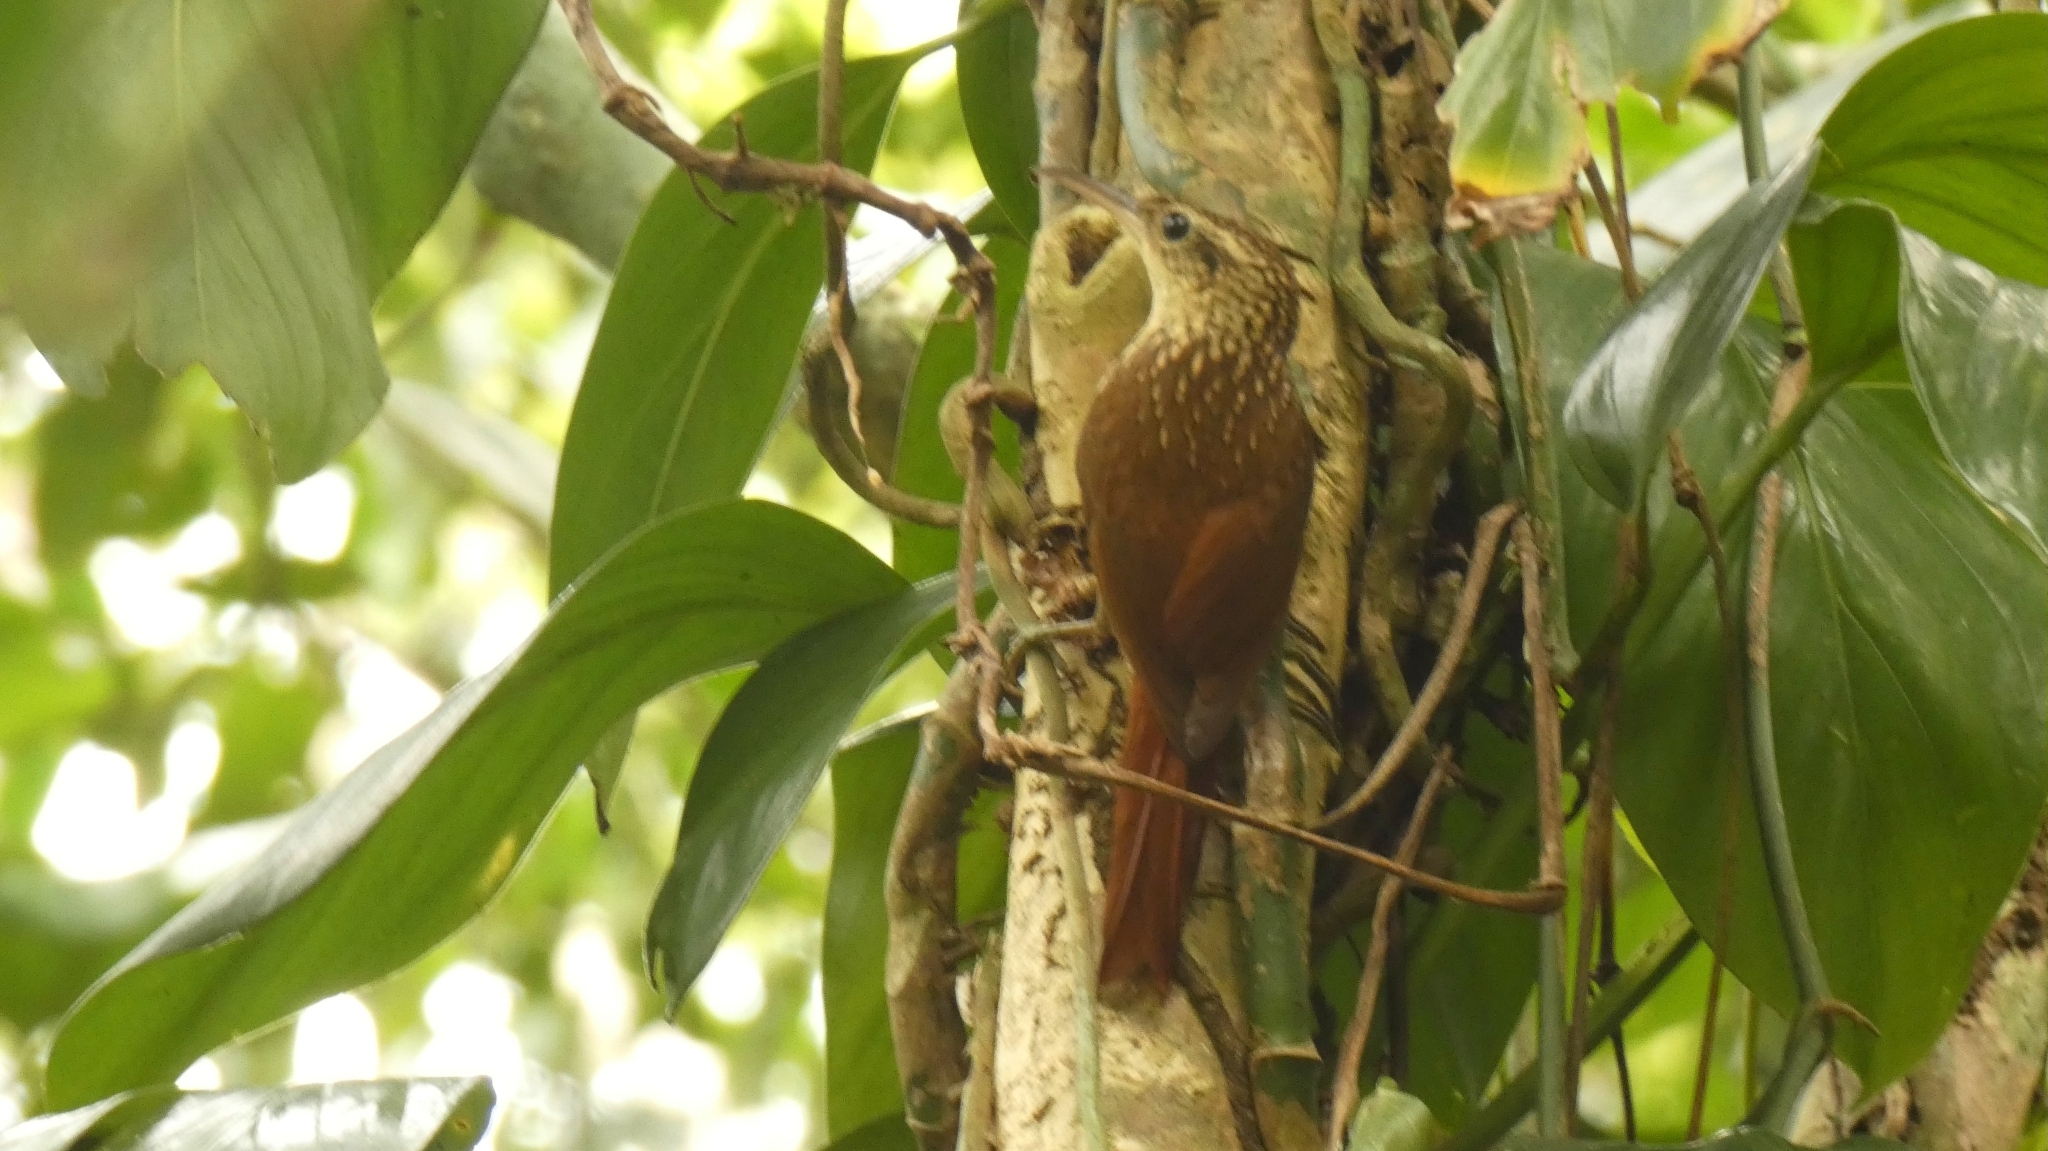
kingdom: Animalia
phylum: Chordata
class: Aves
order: Passeriformes
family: Furnariidae
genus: Xiphorhynchus
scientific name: Xiphorhynchus fuscus
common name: Lesser woodcreeper
